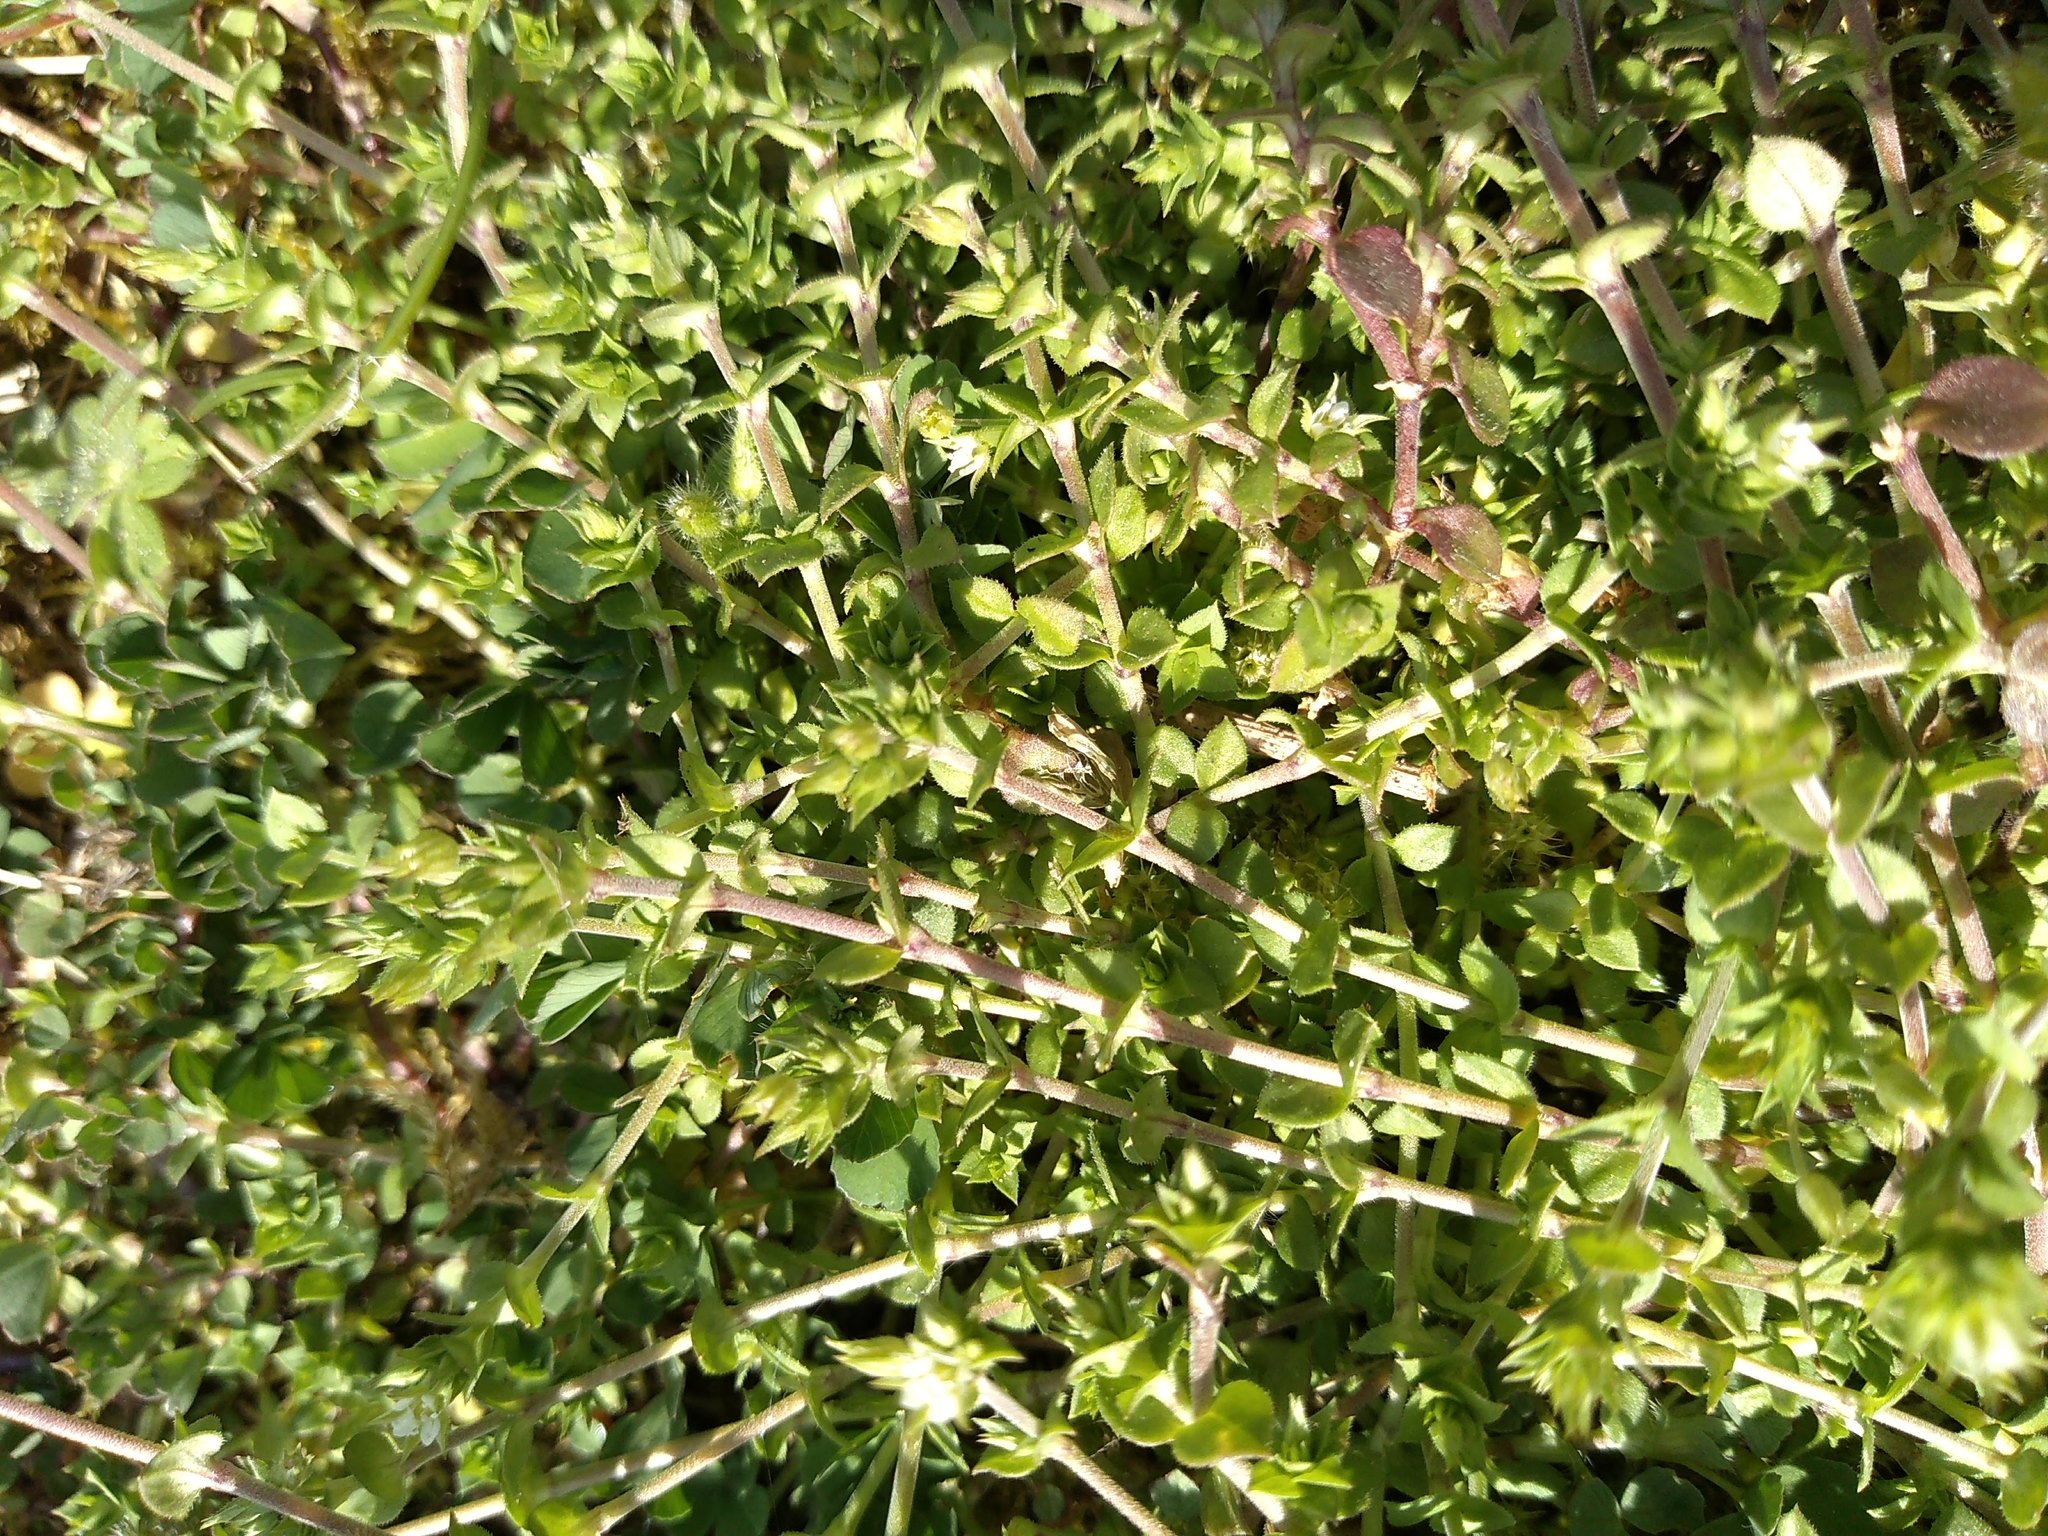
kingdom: Plantae
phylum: Tracheophyta
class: Magnoliopsida
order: Caryophyllales
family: Caryophyllaceae
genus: Arenaria
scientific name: Arenaria serpyllifolia
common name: Thyme-leaved sandwort
